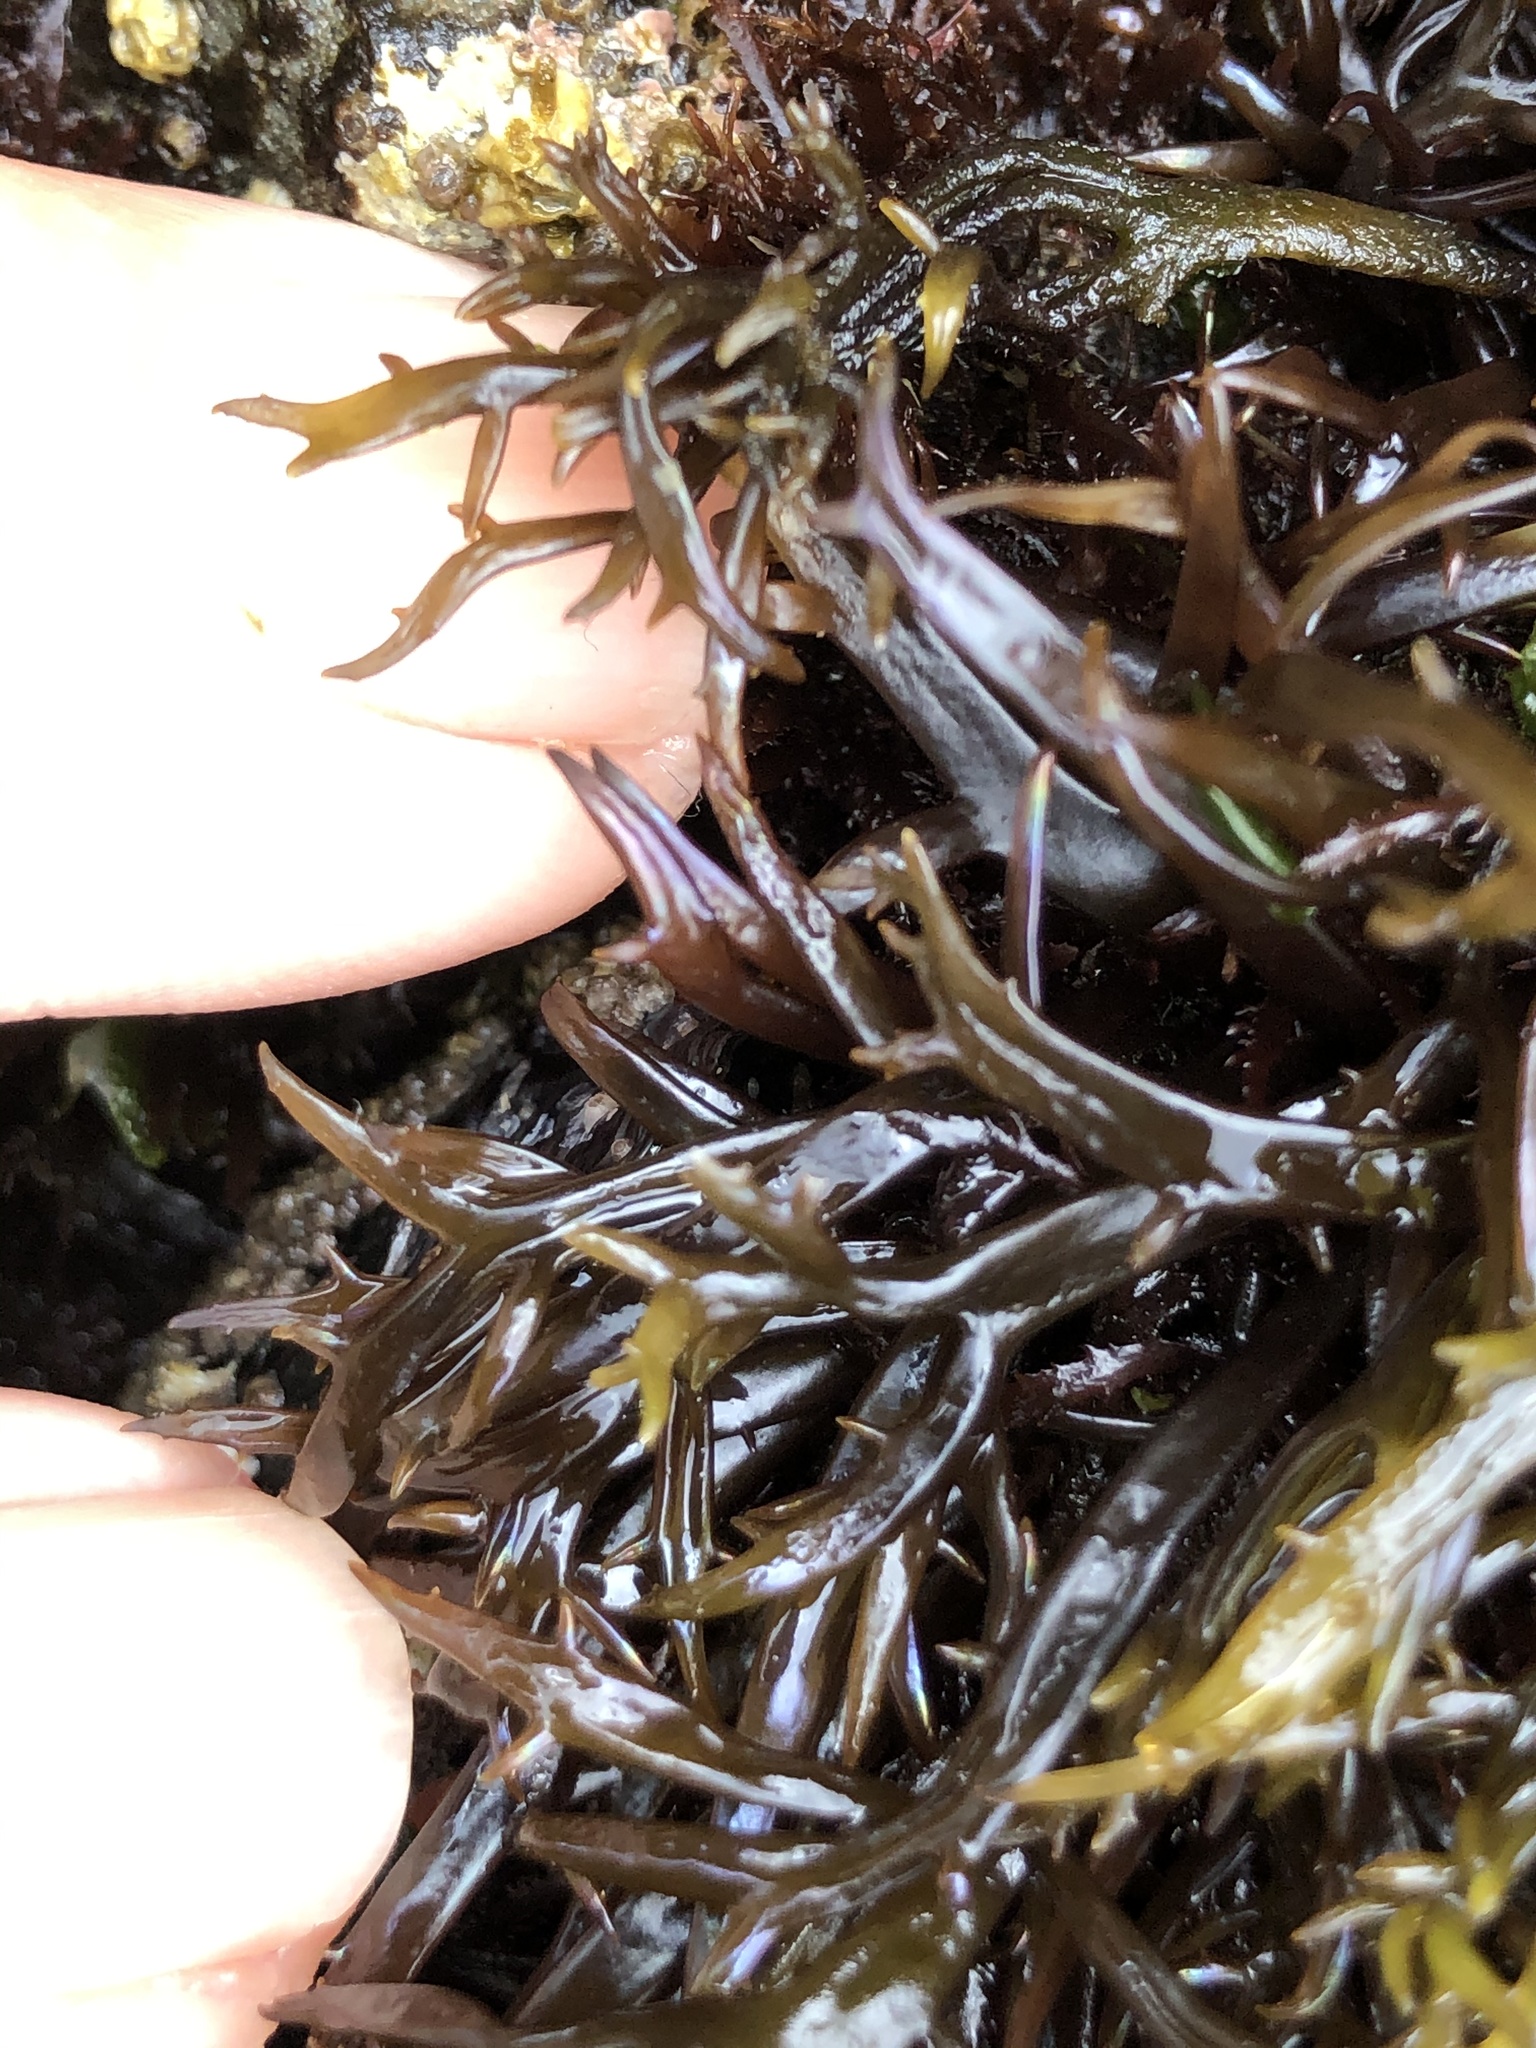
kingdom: Plantae
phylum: Rhodophyta
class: Florideophyceae
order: Gigartinales
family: Gigartinaceae
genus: Chondracanthus
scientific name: Chondracanthus canaliculatus
